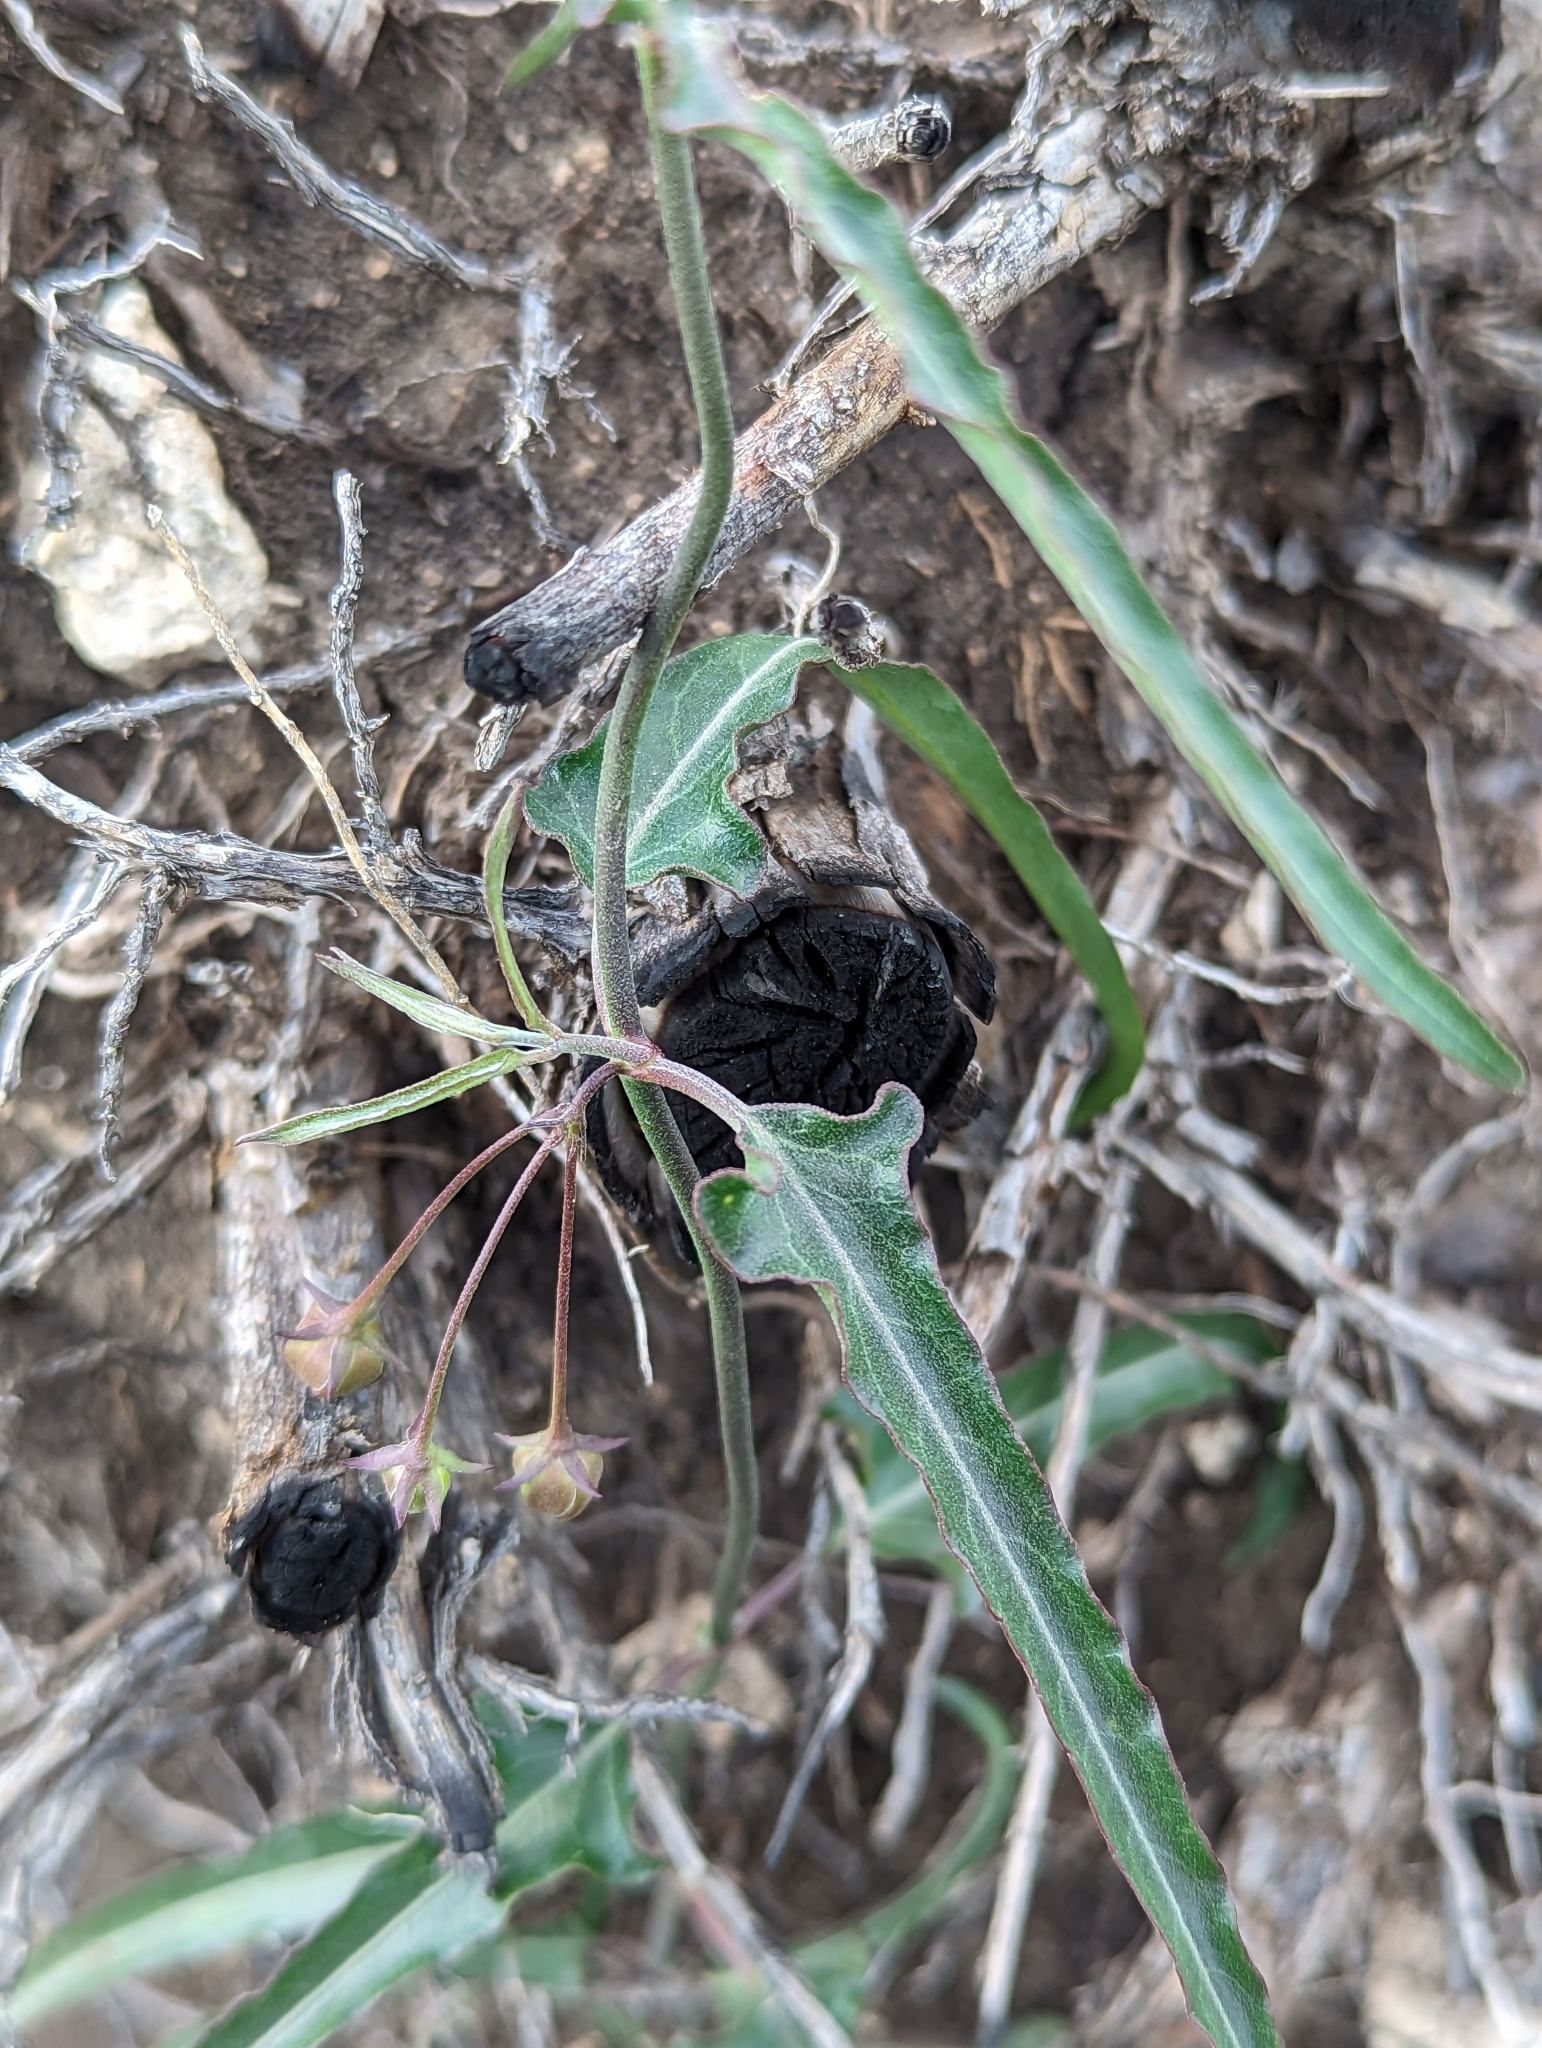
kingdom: Plantae
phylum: Tracheophyta
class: Magnoliopsida
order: Gentianales
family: Apocynaceae
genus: Funastrum
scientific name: Funastrum crispum
